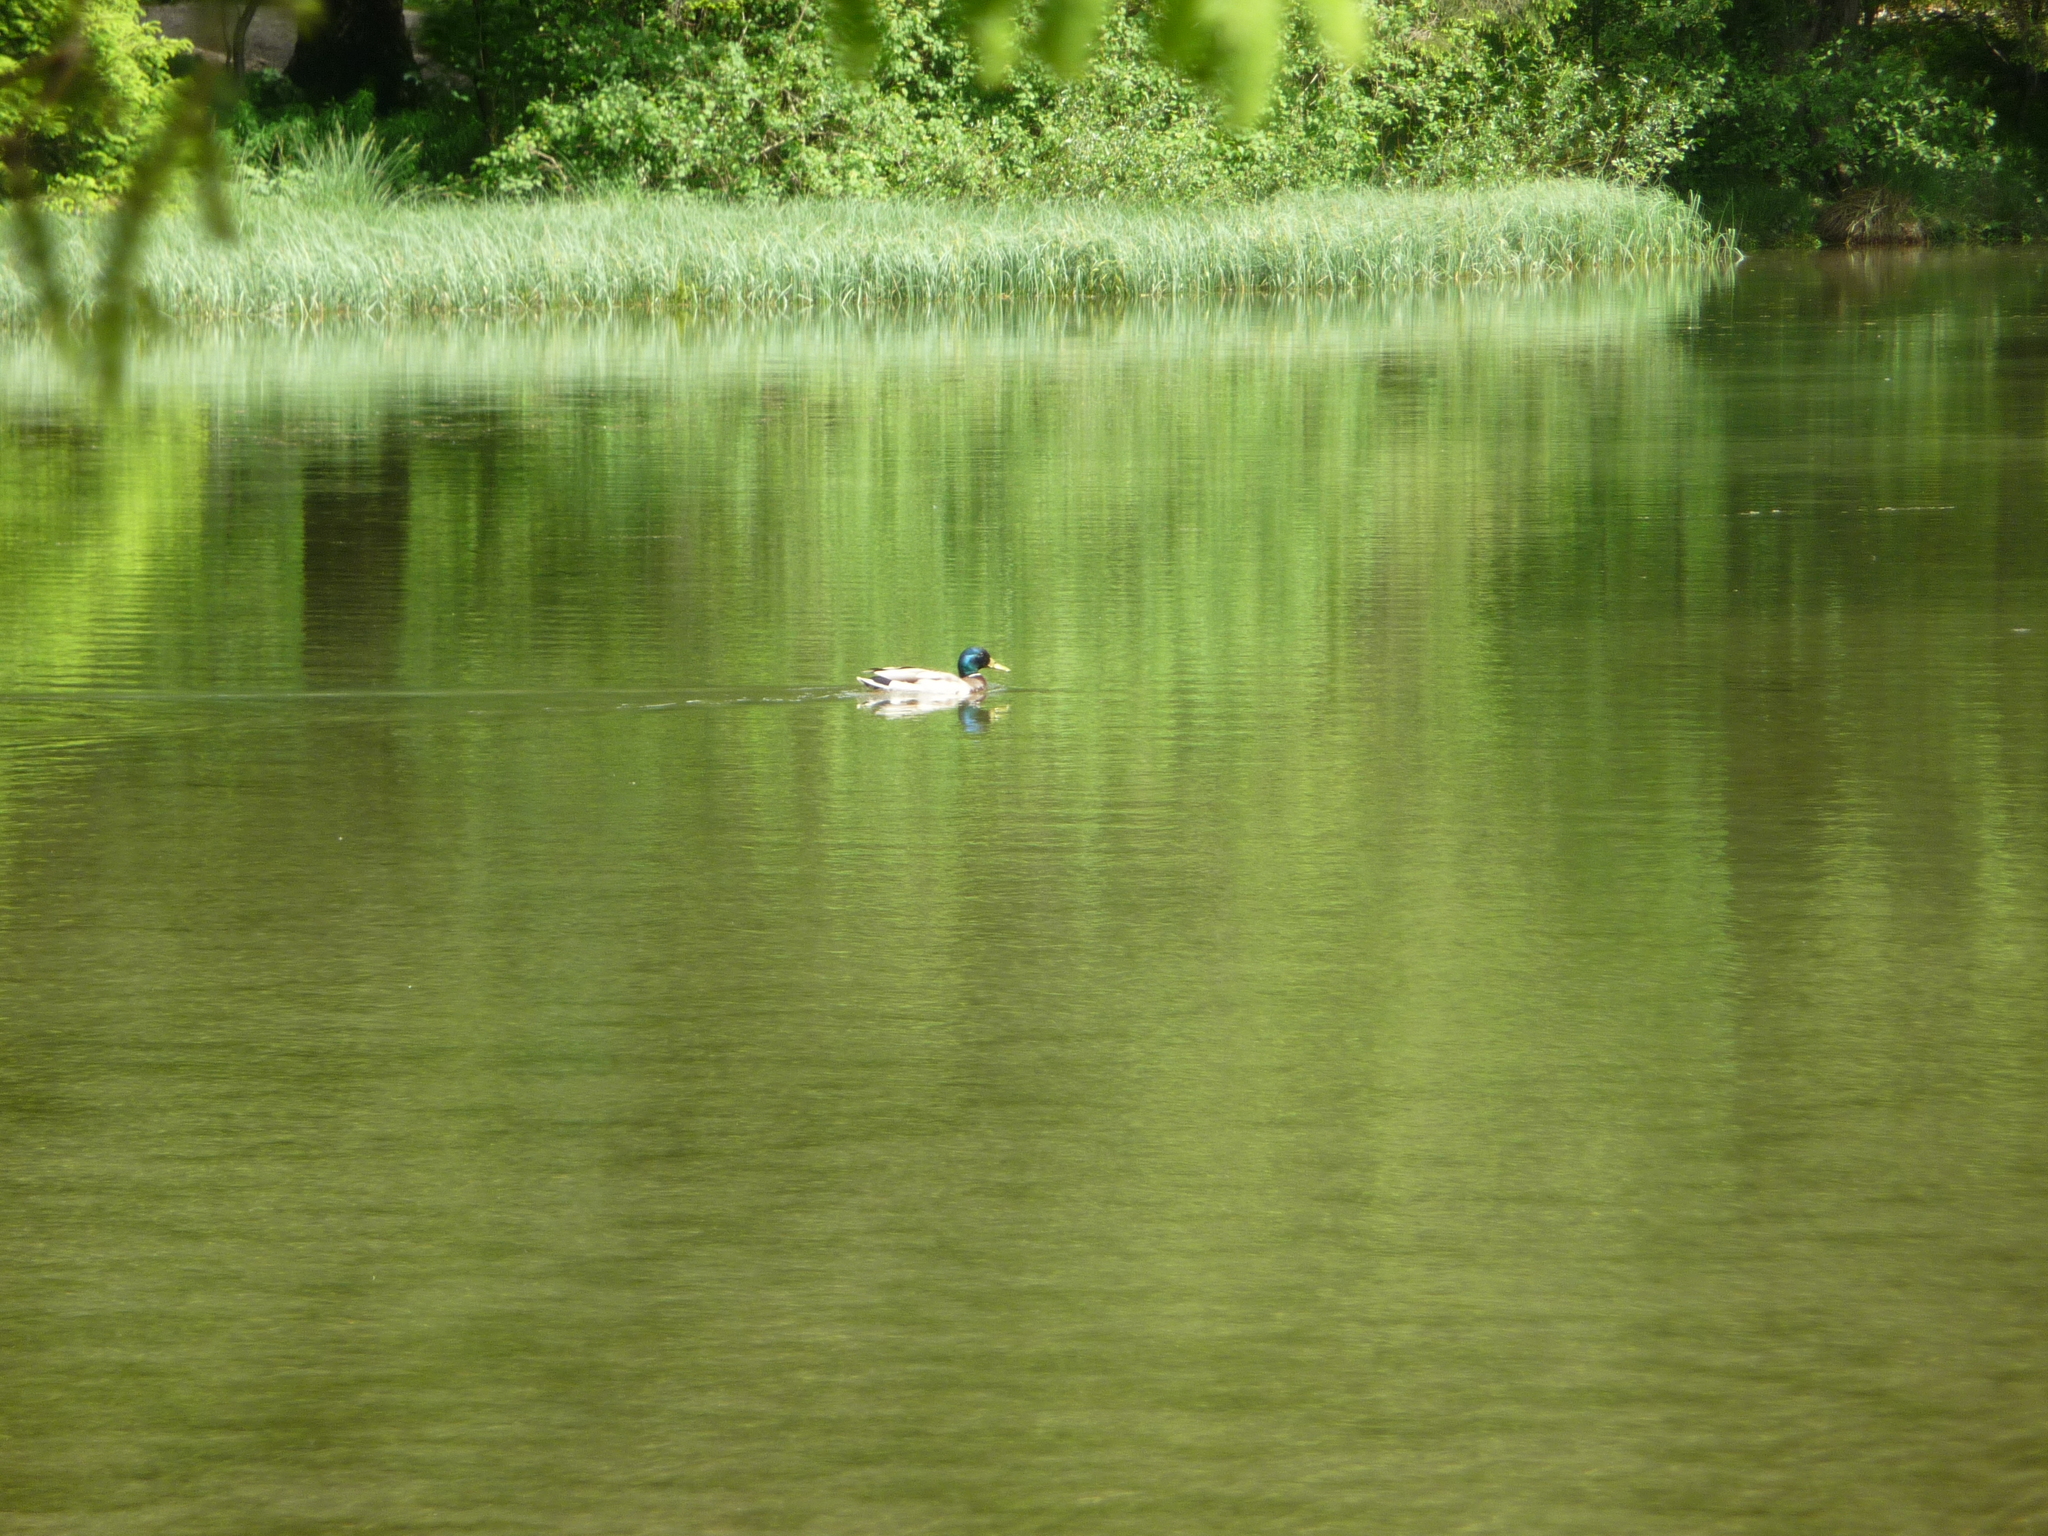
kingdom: Animalia
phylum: Chordata
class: Aves
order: Anseriformes
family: Anatidae
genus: Anas
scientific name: Anas platyrhynchos
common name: Mallard
